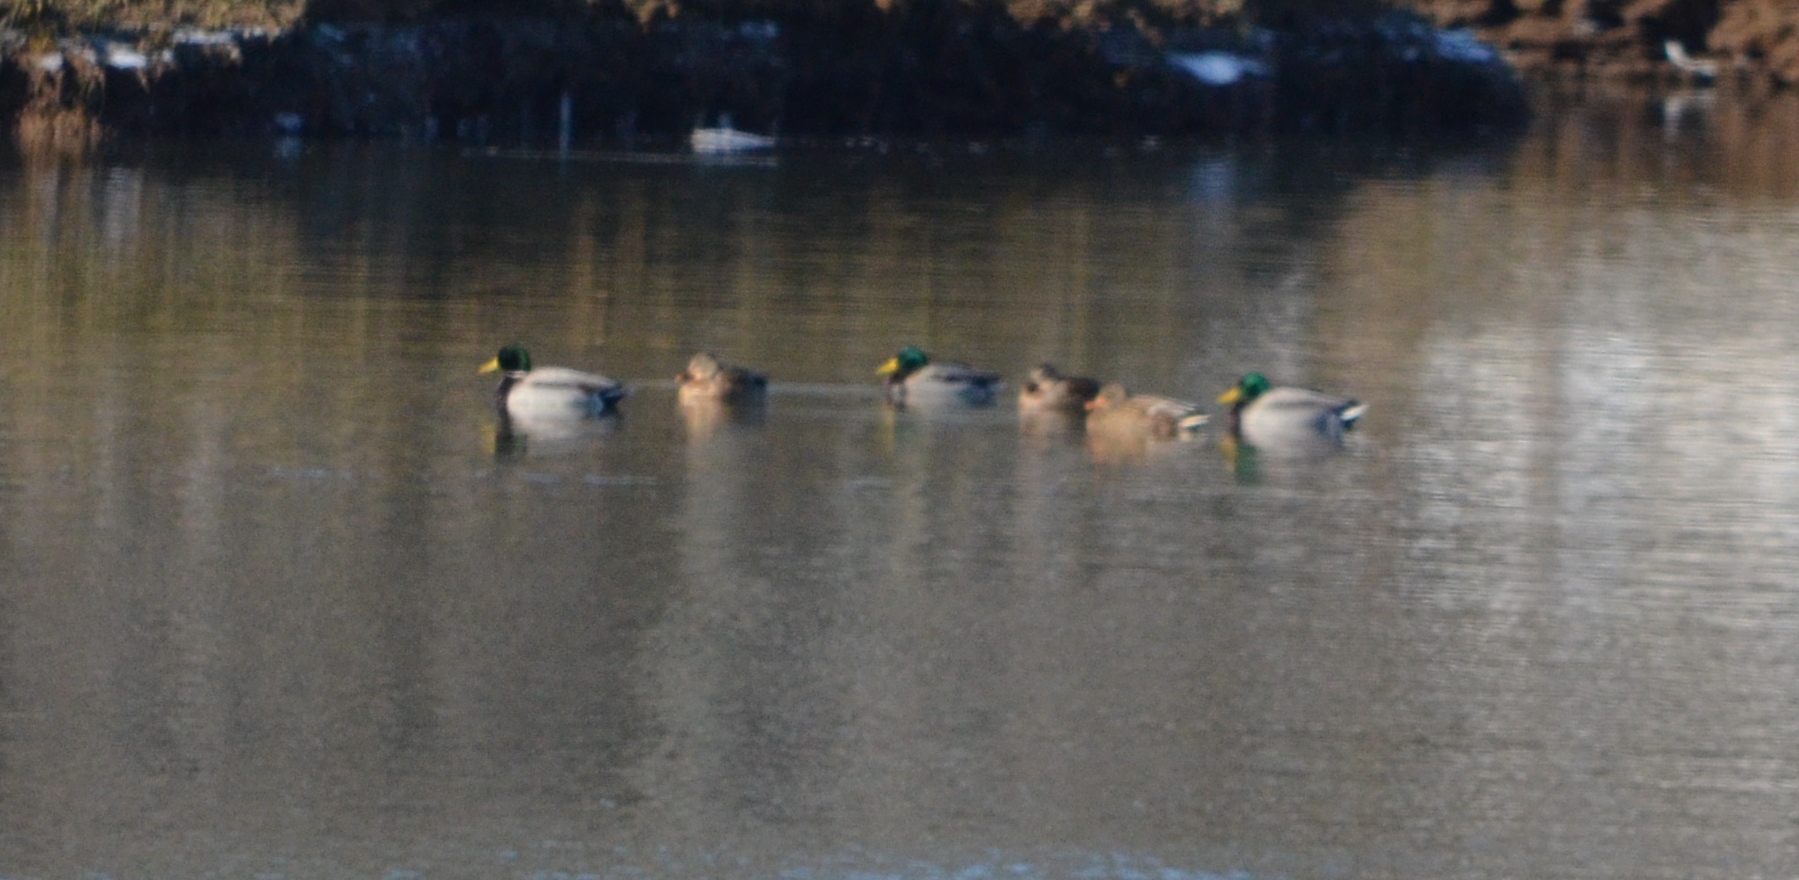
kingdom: Animalia
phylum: Chordata
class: Aves
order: Anseriformes
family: Anatidae
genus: Anas
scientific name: Anas platyrhynchos
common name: Mallard
